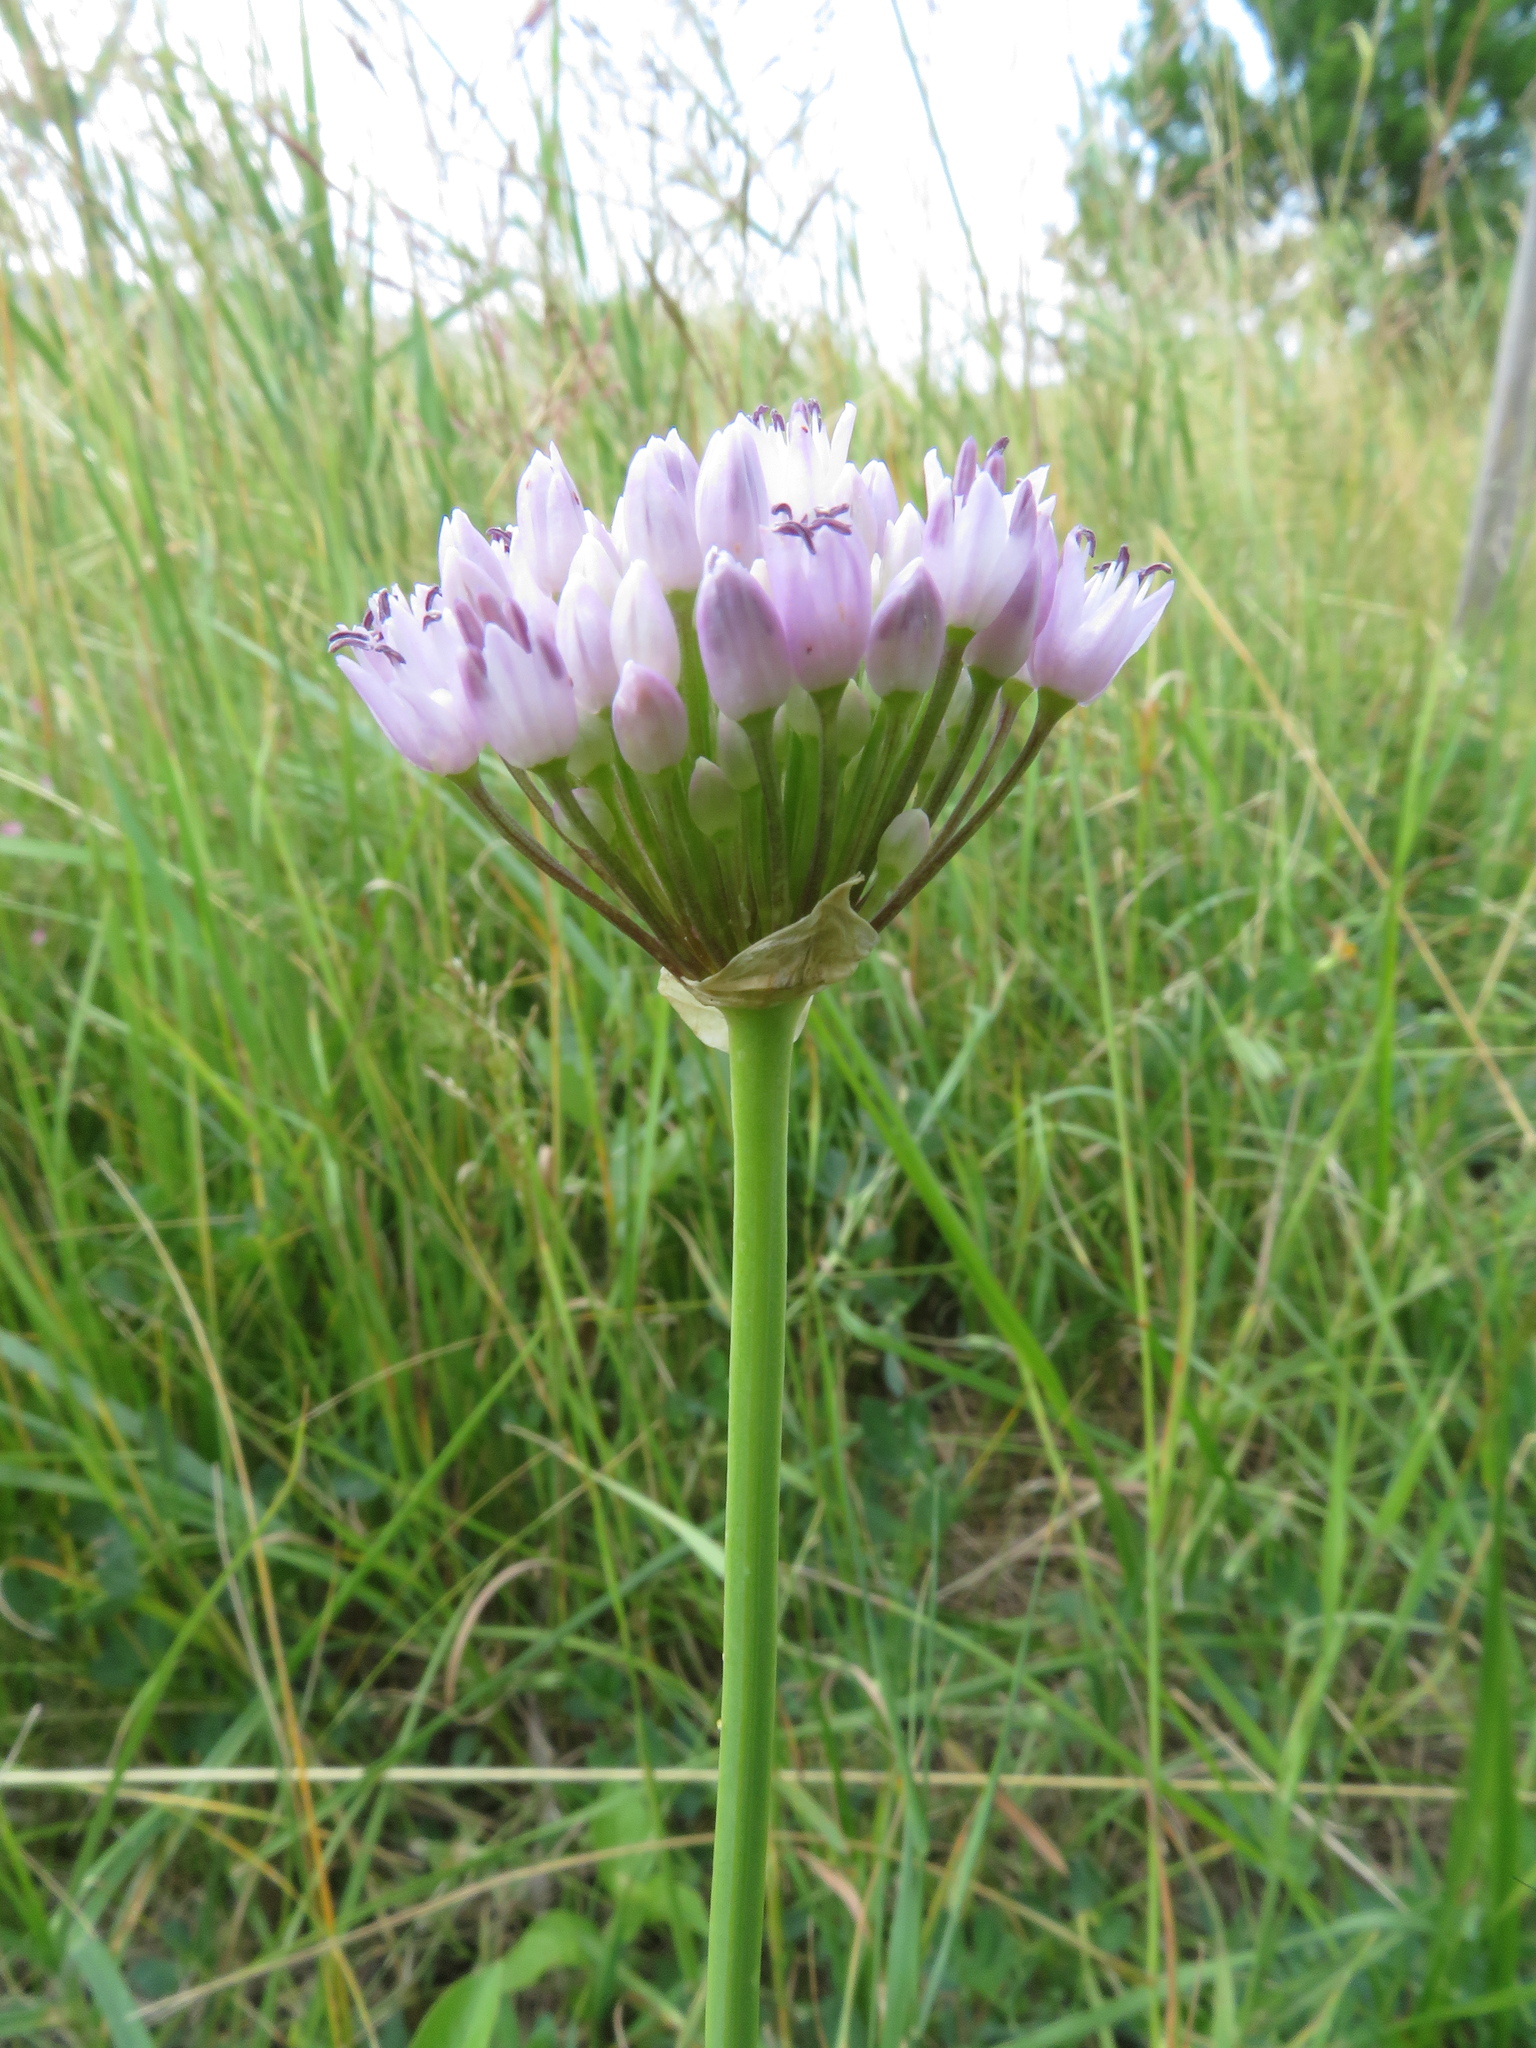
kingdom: Plantae
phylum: Tracheophyta
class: Liliopsida
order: Asparagales
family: Amaryllidaceae
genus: Allium
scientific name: Allium angulosum
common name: Mouse garlic
